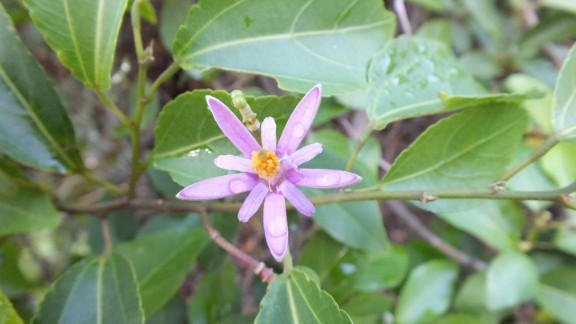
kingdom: Plantae
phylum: Tracheophyta
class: Magnoliopsida
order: Malvales
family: Malvaceae
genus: Grewia
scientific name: Grewia occidentalis
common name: Crossberry
